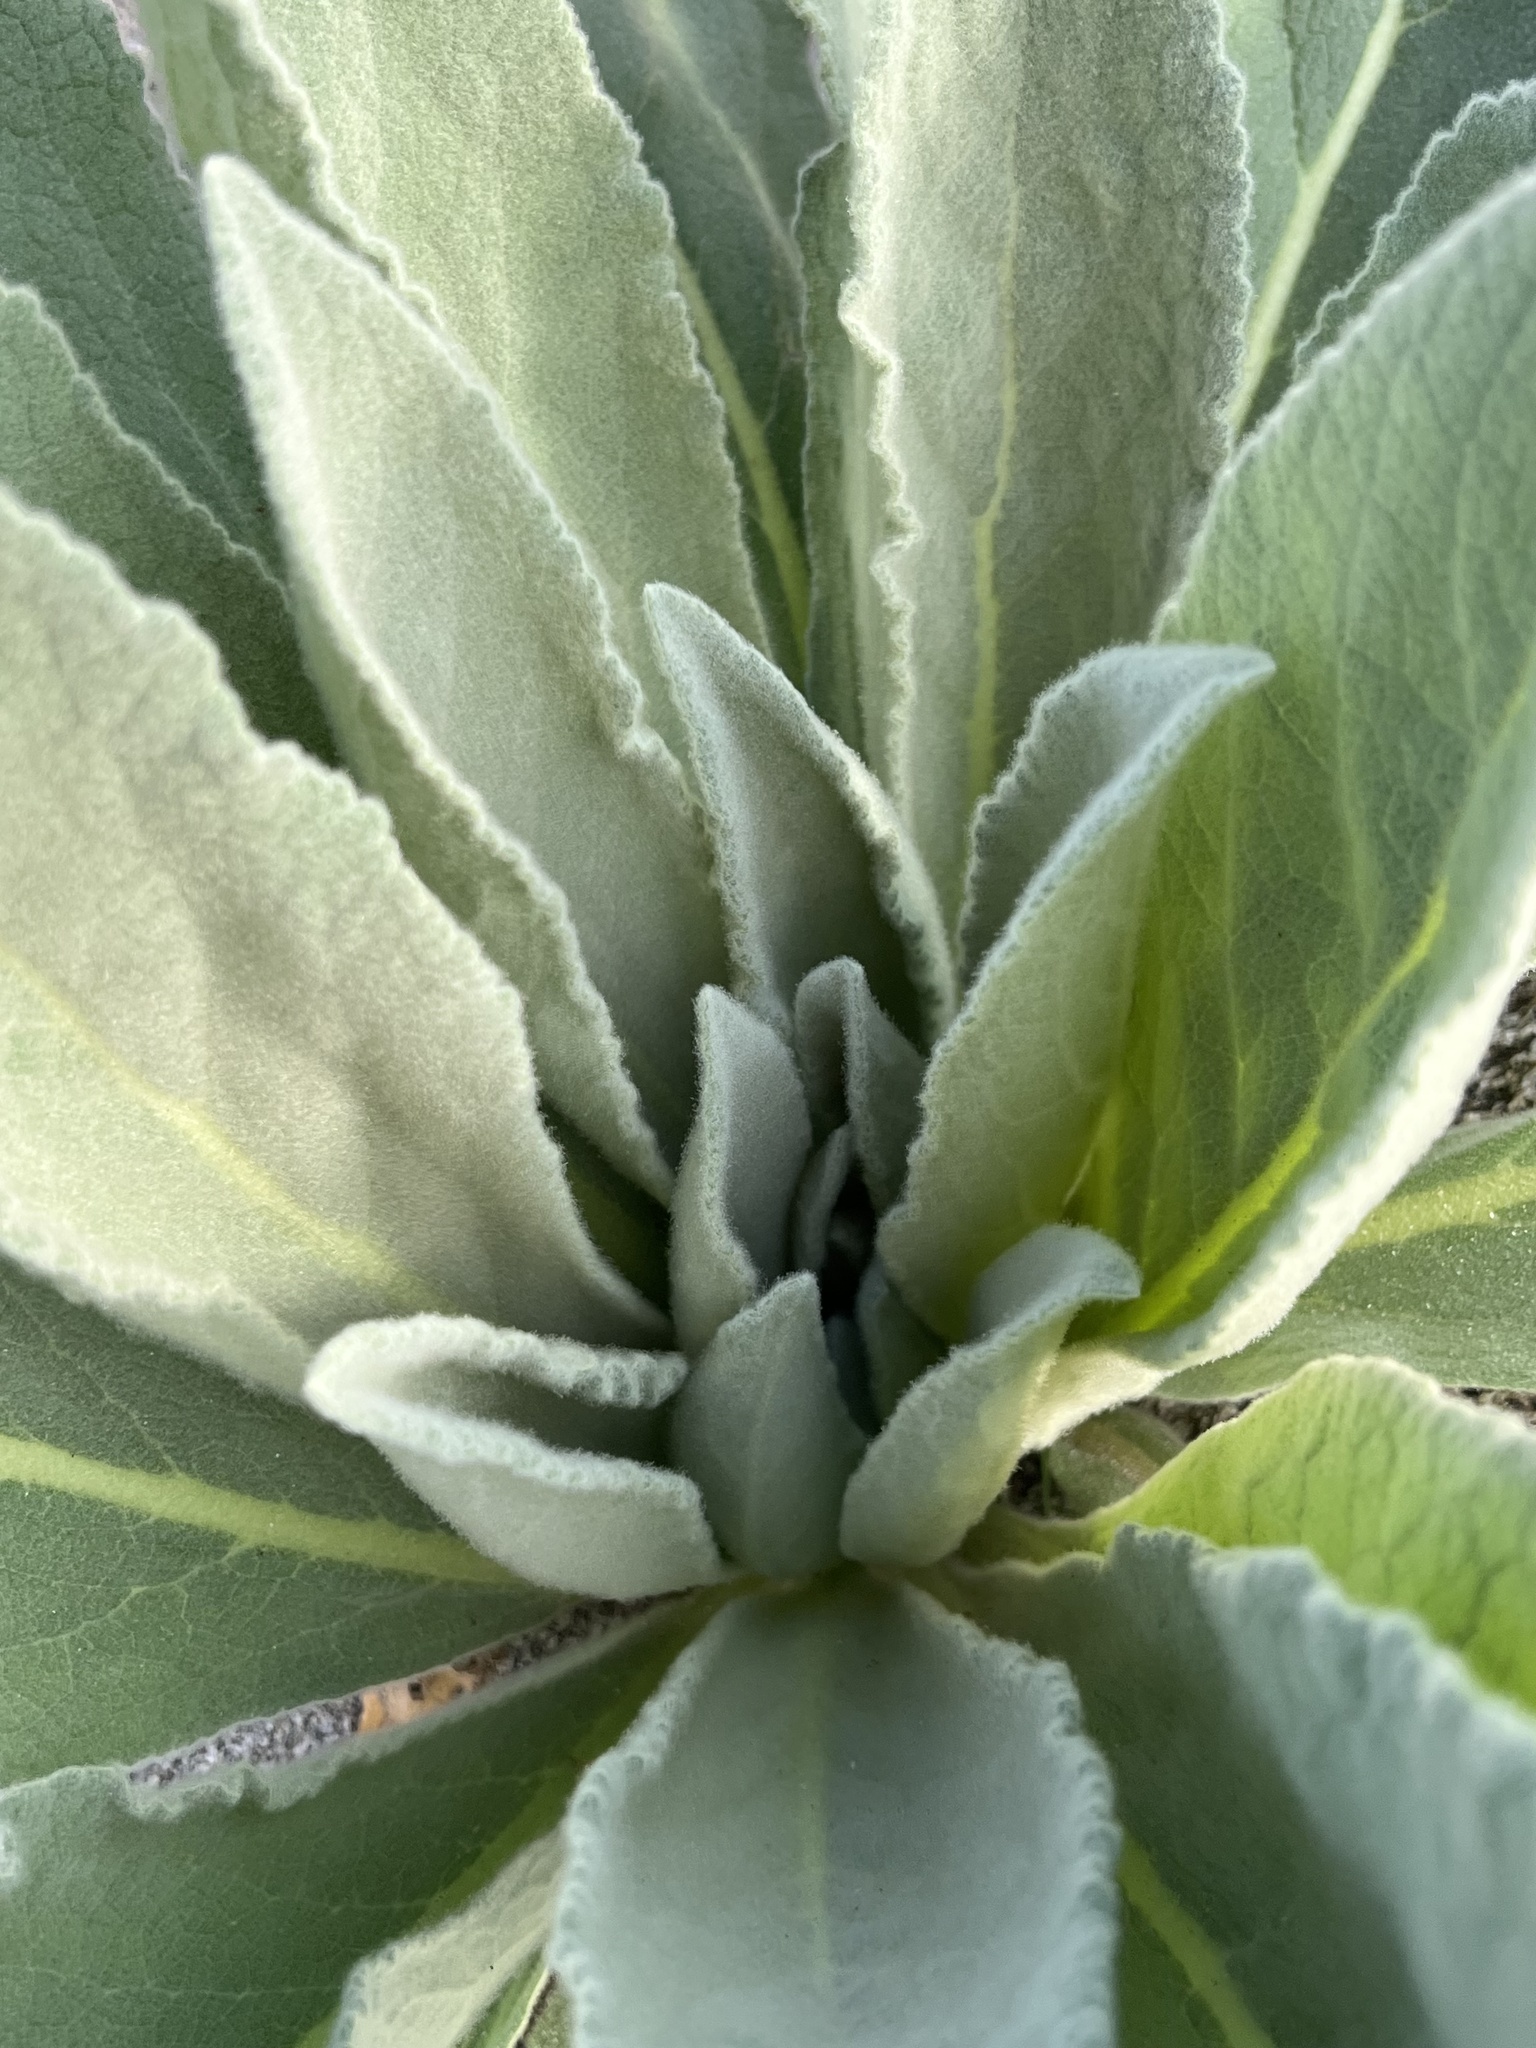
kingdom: Plantae
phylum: Tracheophyta
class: Magnoliopsida
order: Lamiales
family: Scrophulariaceae
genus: Verbascum
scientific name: Verbascum thapsus
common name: Common mullein
